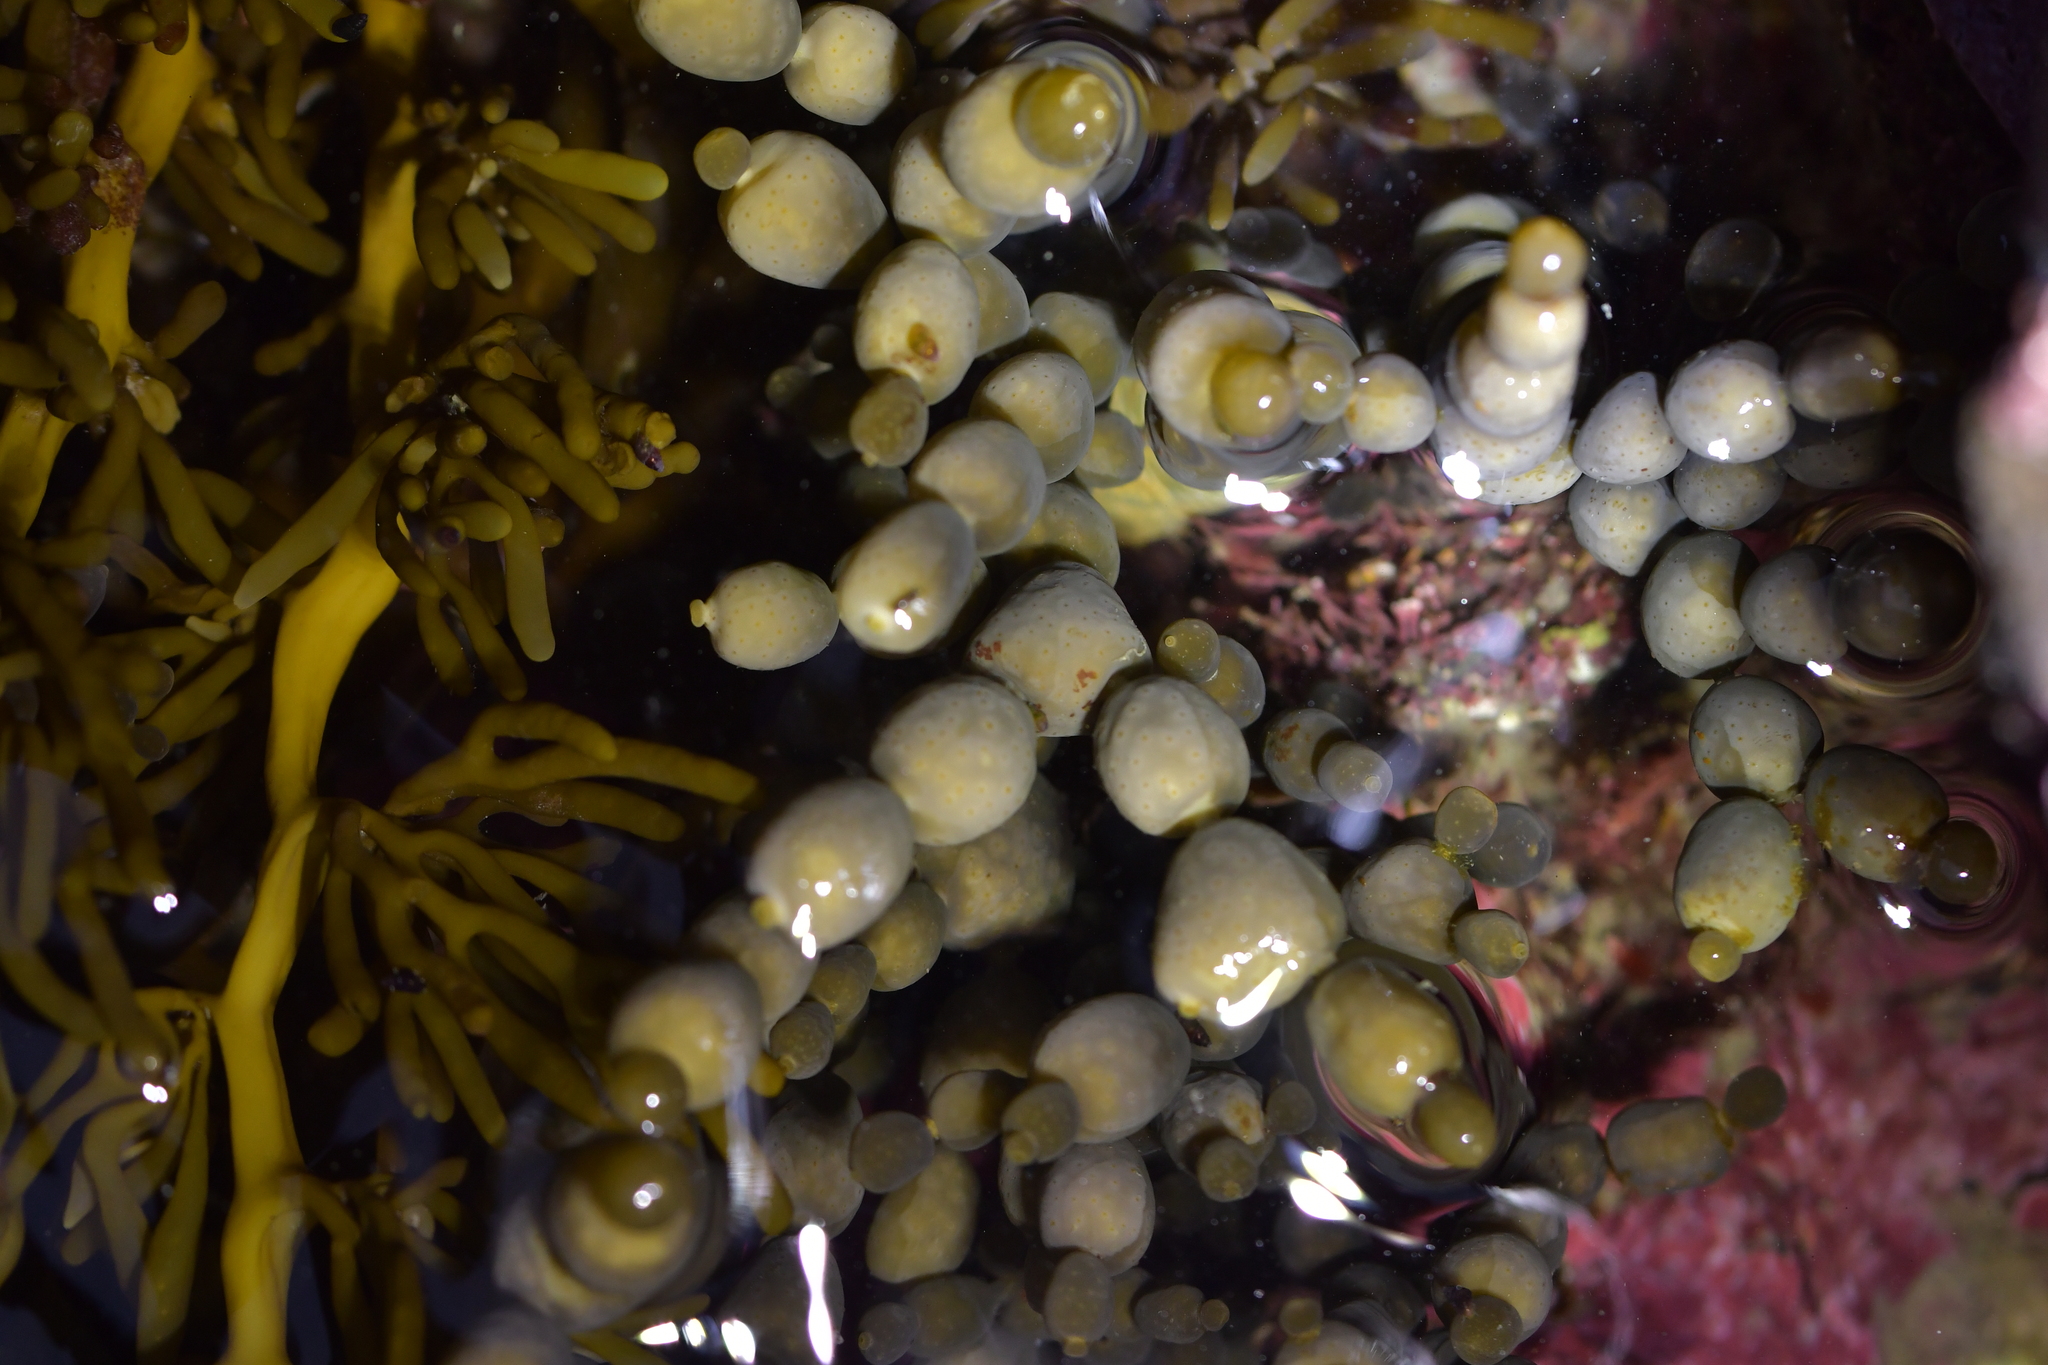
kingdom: Chromista
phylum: Ochrophyta
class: Phaeophyceae
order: Fucales
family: Hormosiraceae
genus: Hormosira
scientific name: Hormosira banksii
